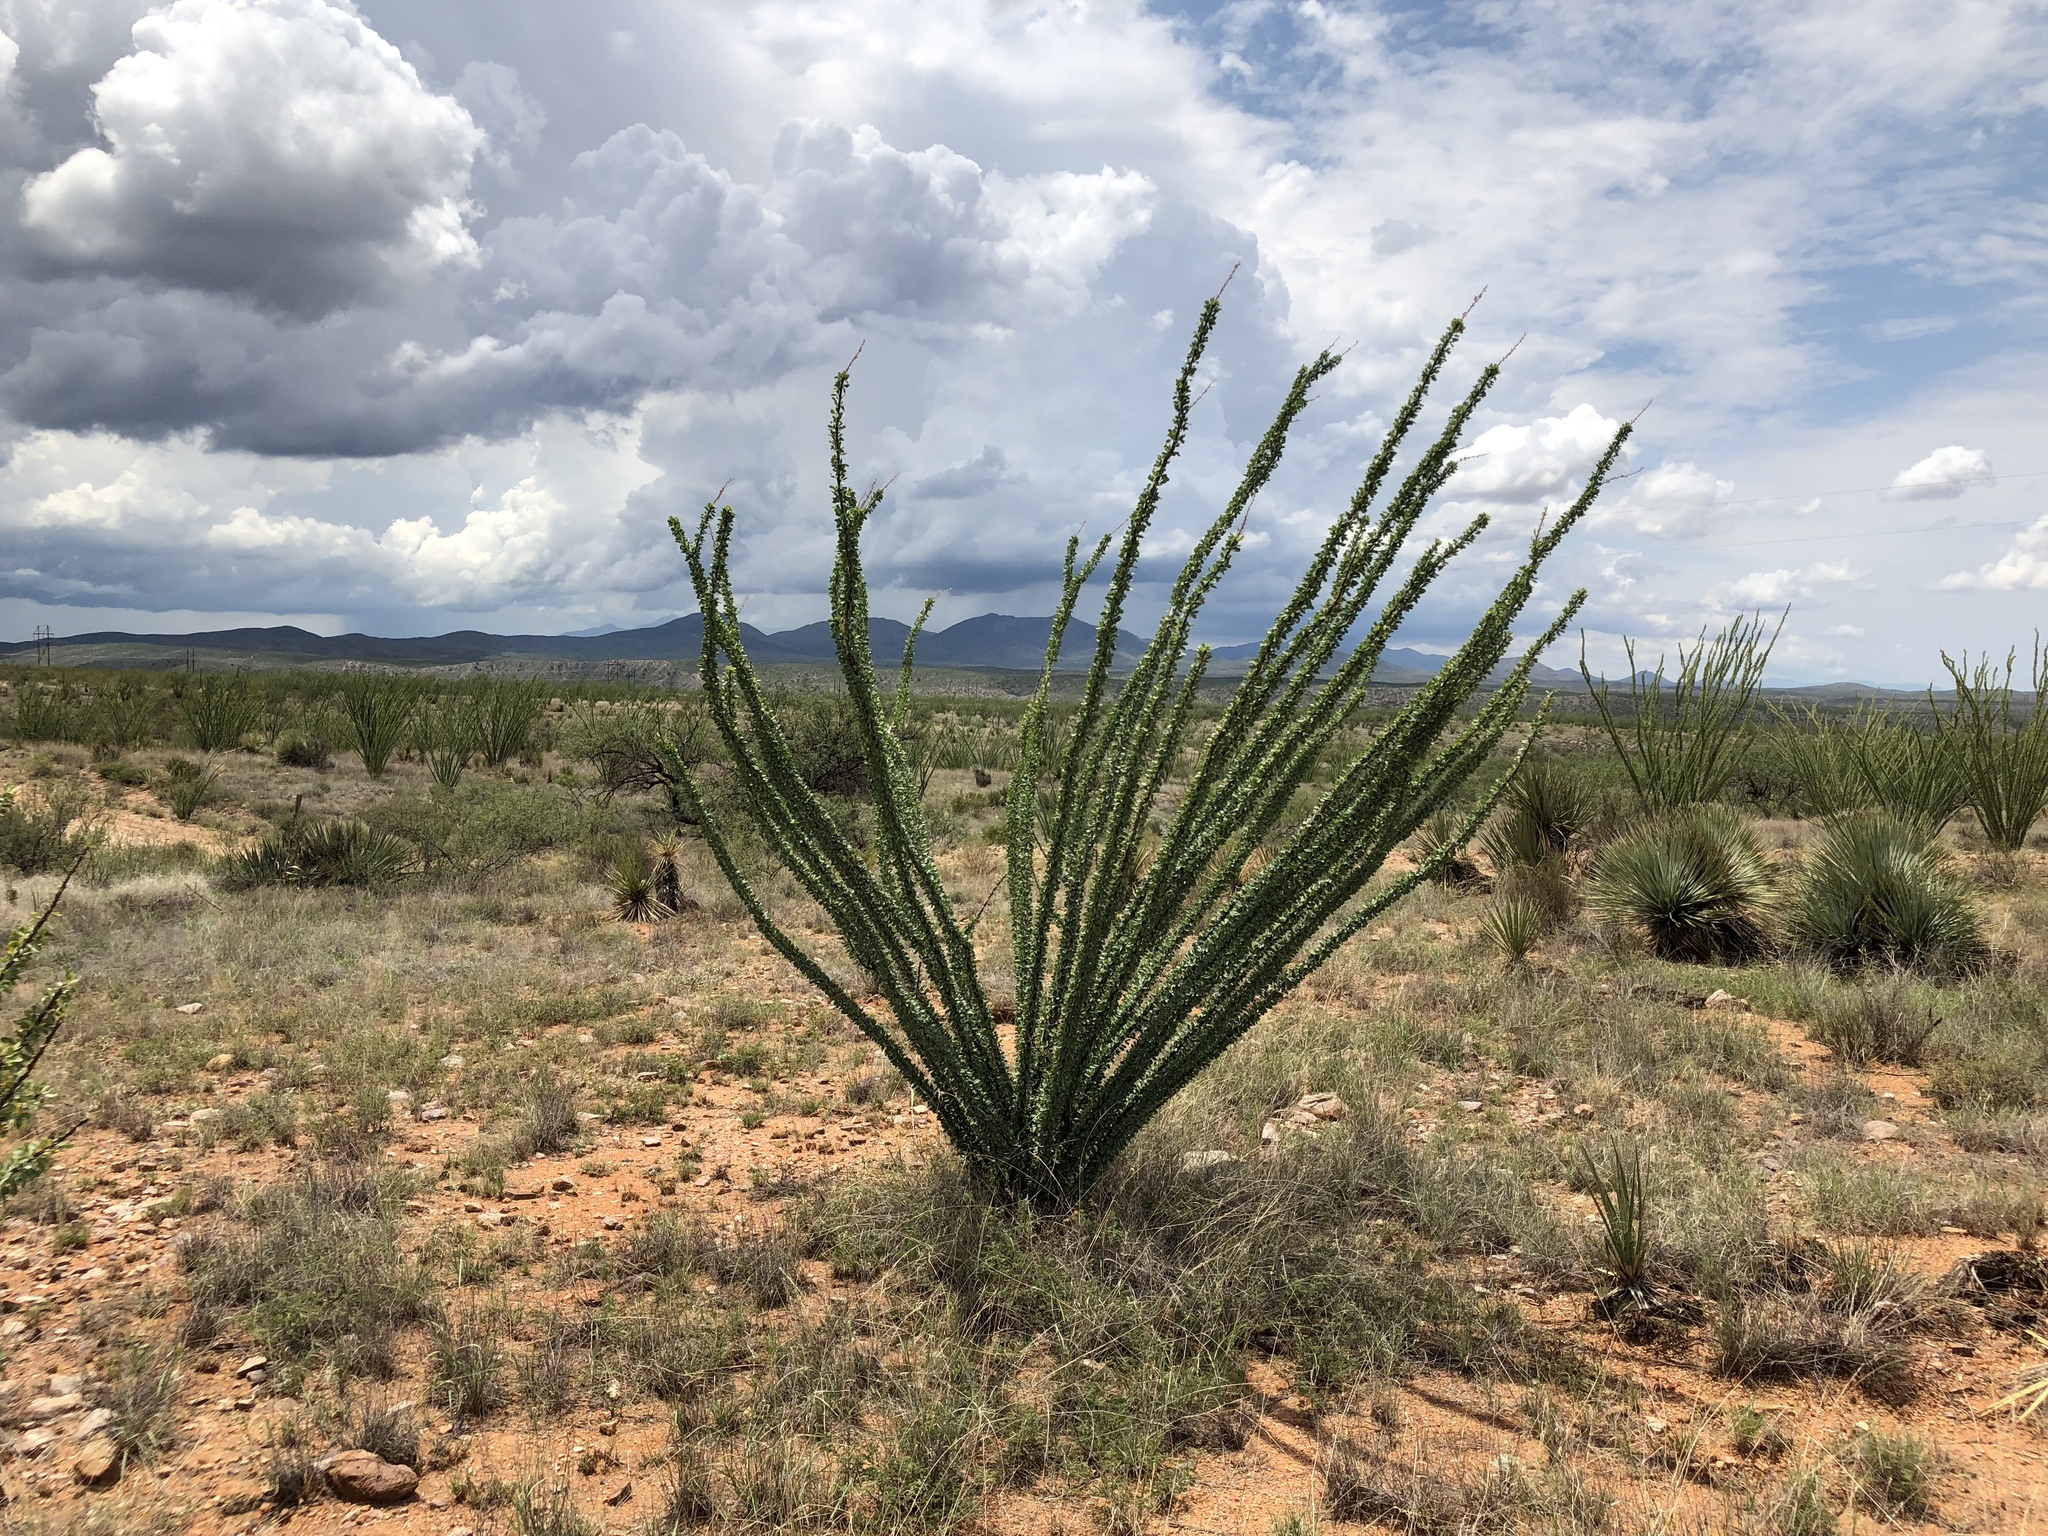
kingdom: Plantae
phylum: Tracheophyta
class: Magnoliopsida
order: Ericales
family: Fouquieriaceae
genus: Fouquieria
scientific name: Fouquieria splendens
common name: Vine-cactus
